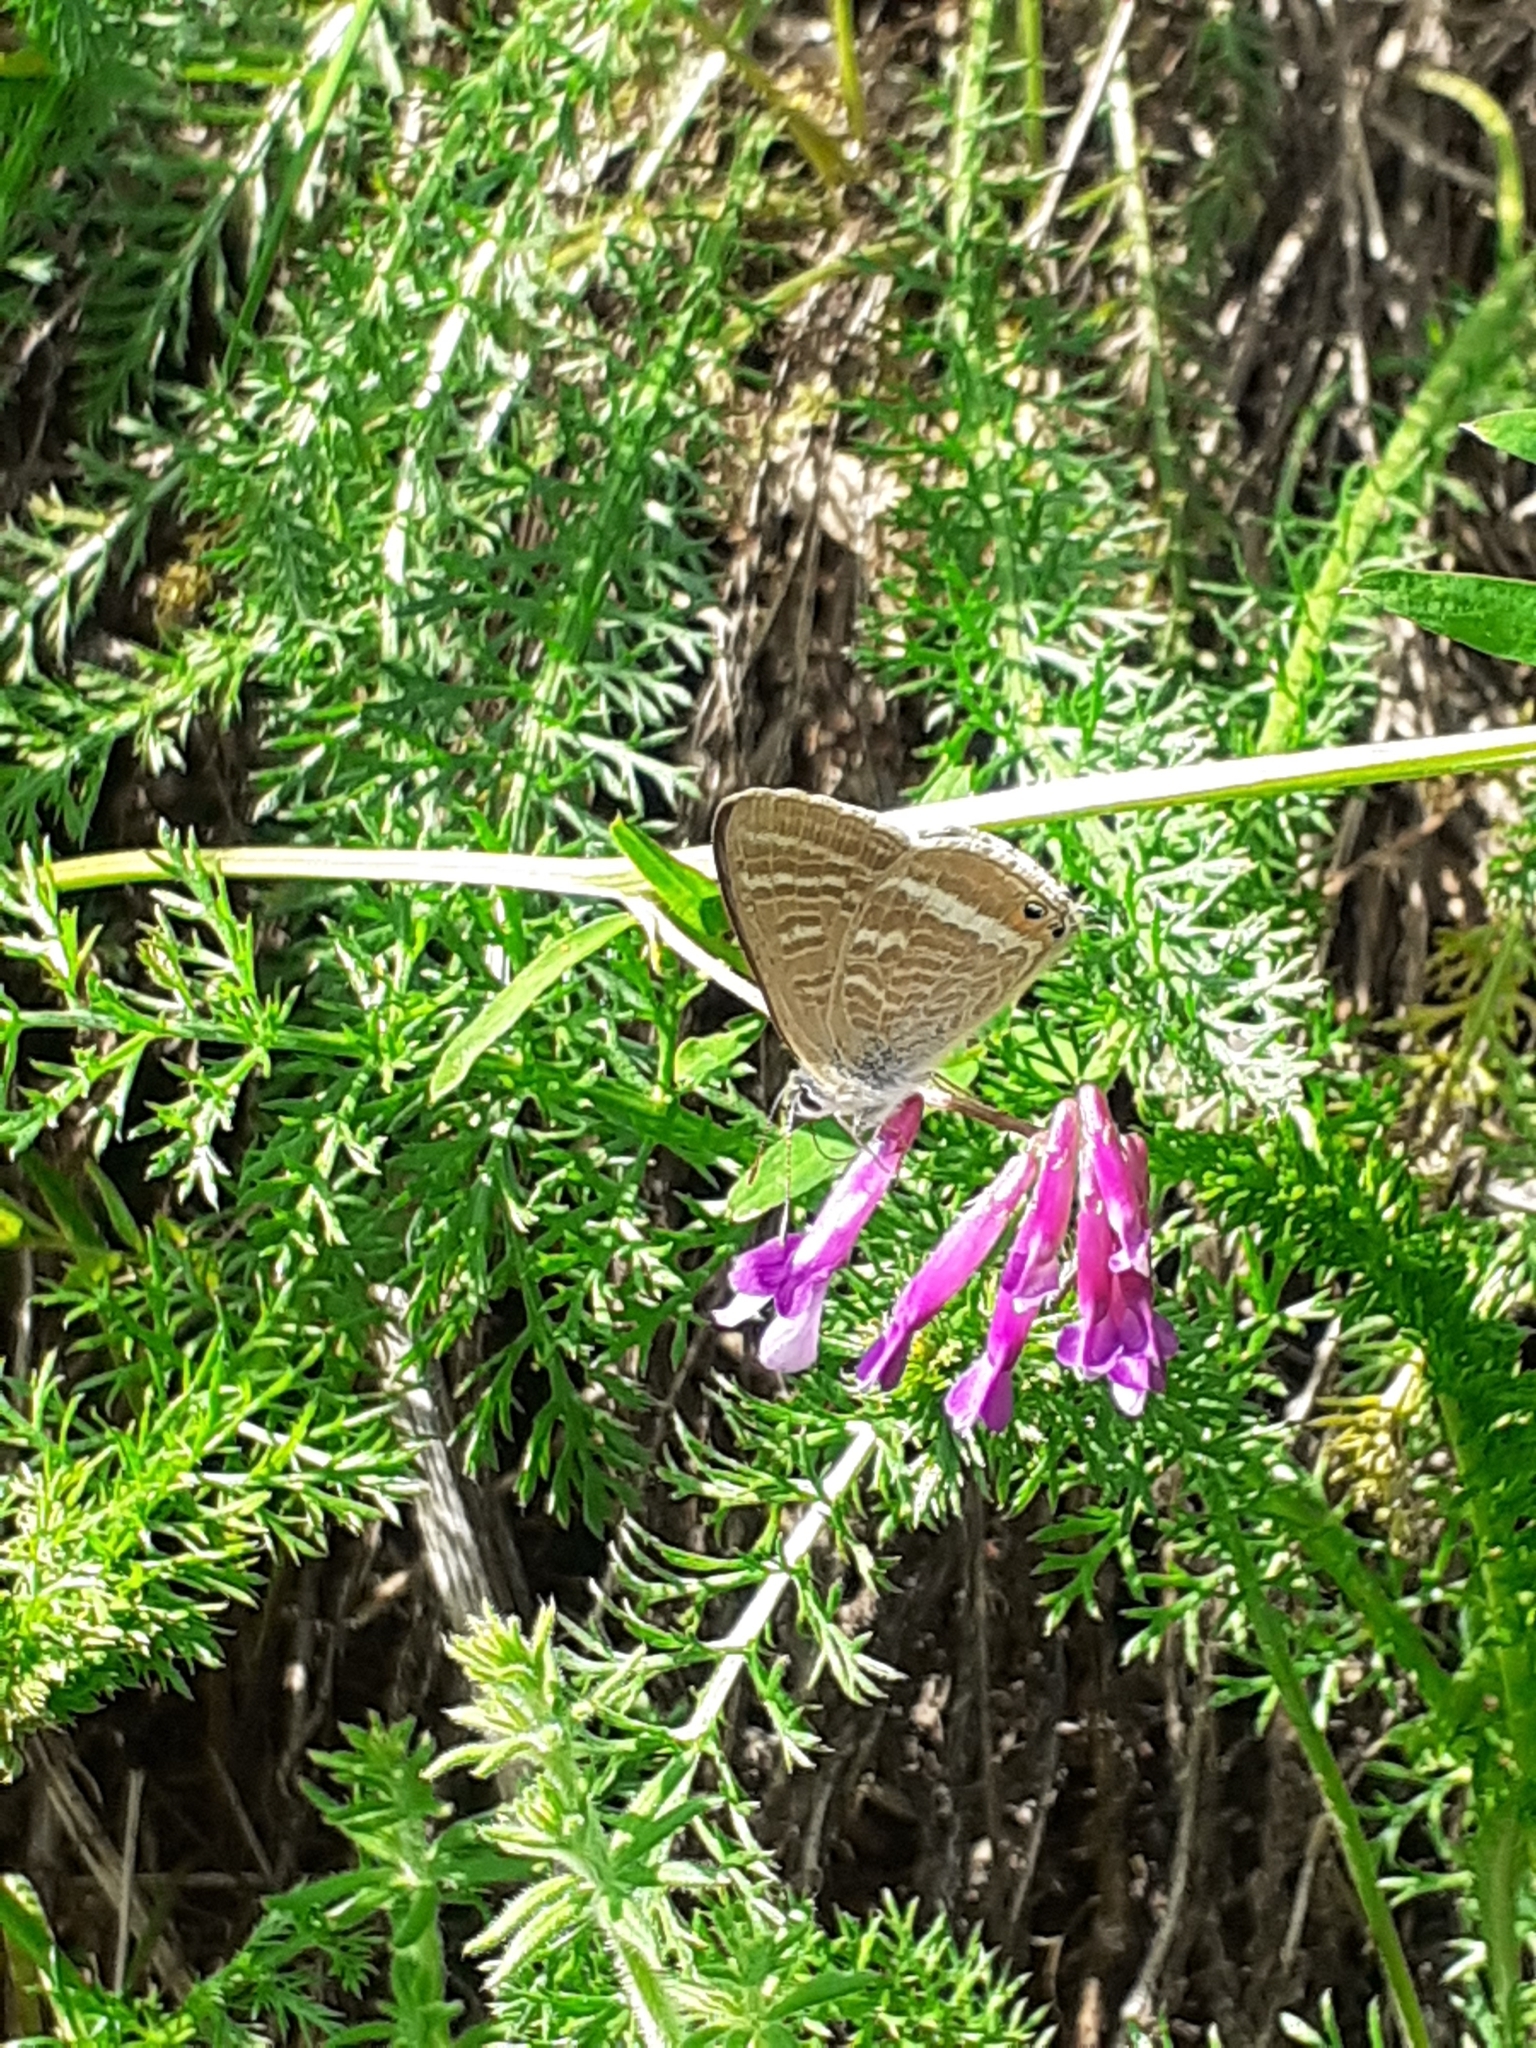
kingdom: Animalia
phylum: Arthropoda
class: Insecta
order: Lepidoptera
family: Lycaenidae
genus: Lampides
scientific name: Lampides boeticus
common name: Long-tailed blue
